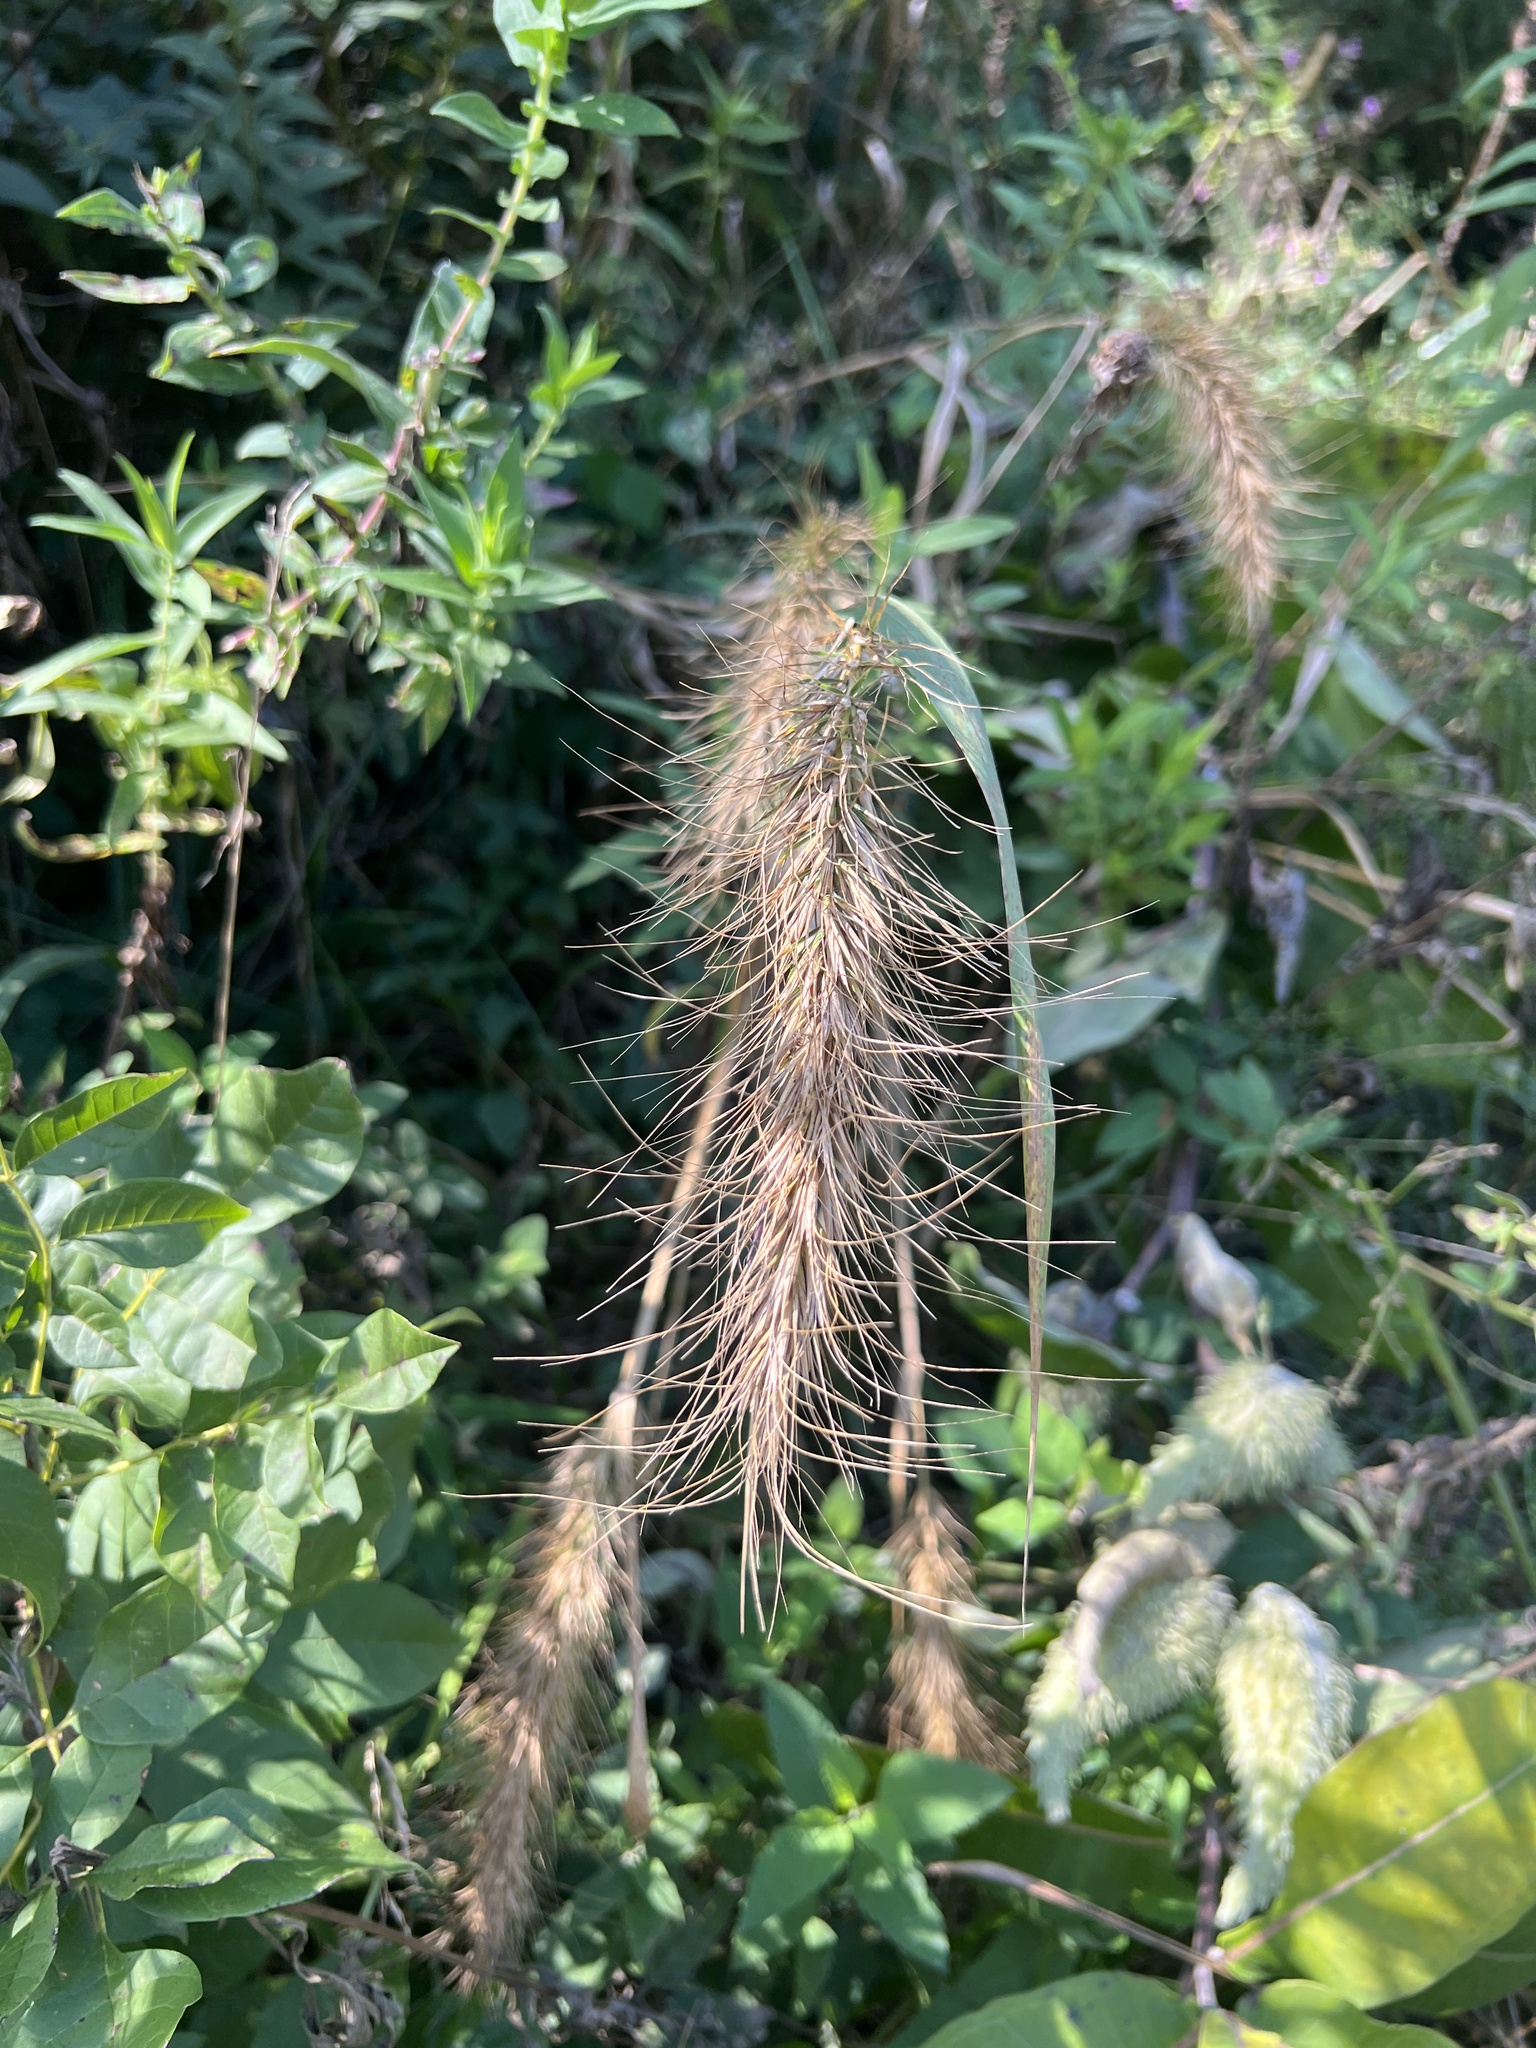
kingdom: Plantae
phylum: Tracheophyta
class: Liliopsida
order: Poales
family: Poaceae
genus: Elymus
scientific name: Elymus canadensis
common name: Canada wild rye
